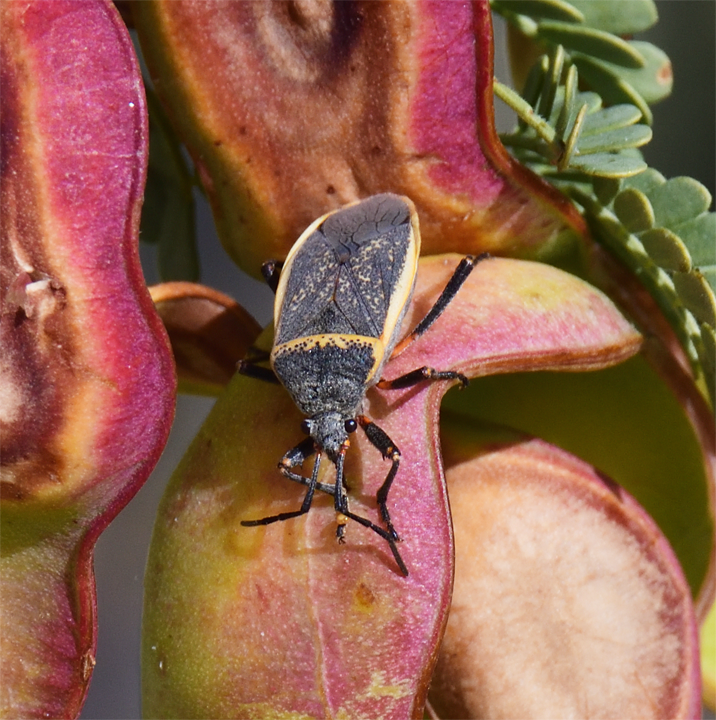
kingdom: Animalia
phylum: Arthropoda
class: Insecta
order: Hemiptera
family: Largidae
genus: Largus
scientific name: Largus californicus
